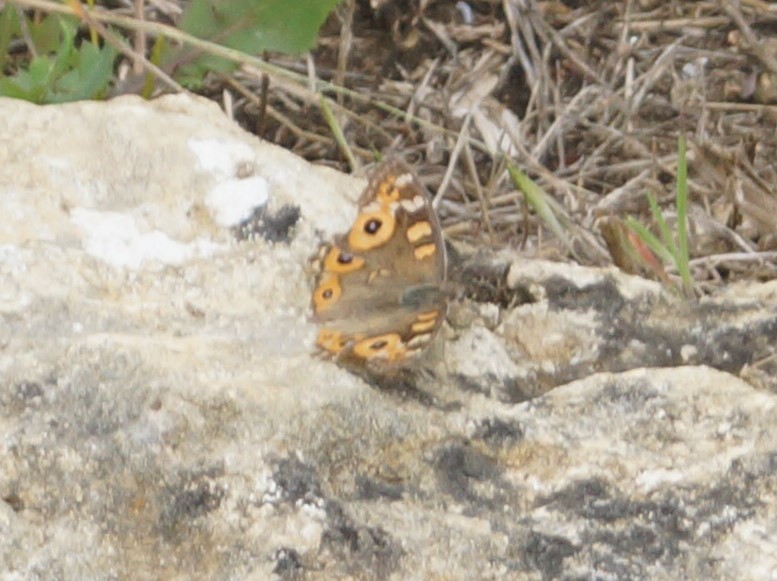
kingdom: Animalia
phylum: Arthropoda
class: Insecta
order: Lepidoptera
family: Nymphalidae
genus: Junonia
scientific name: Junonia villida
